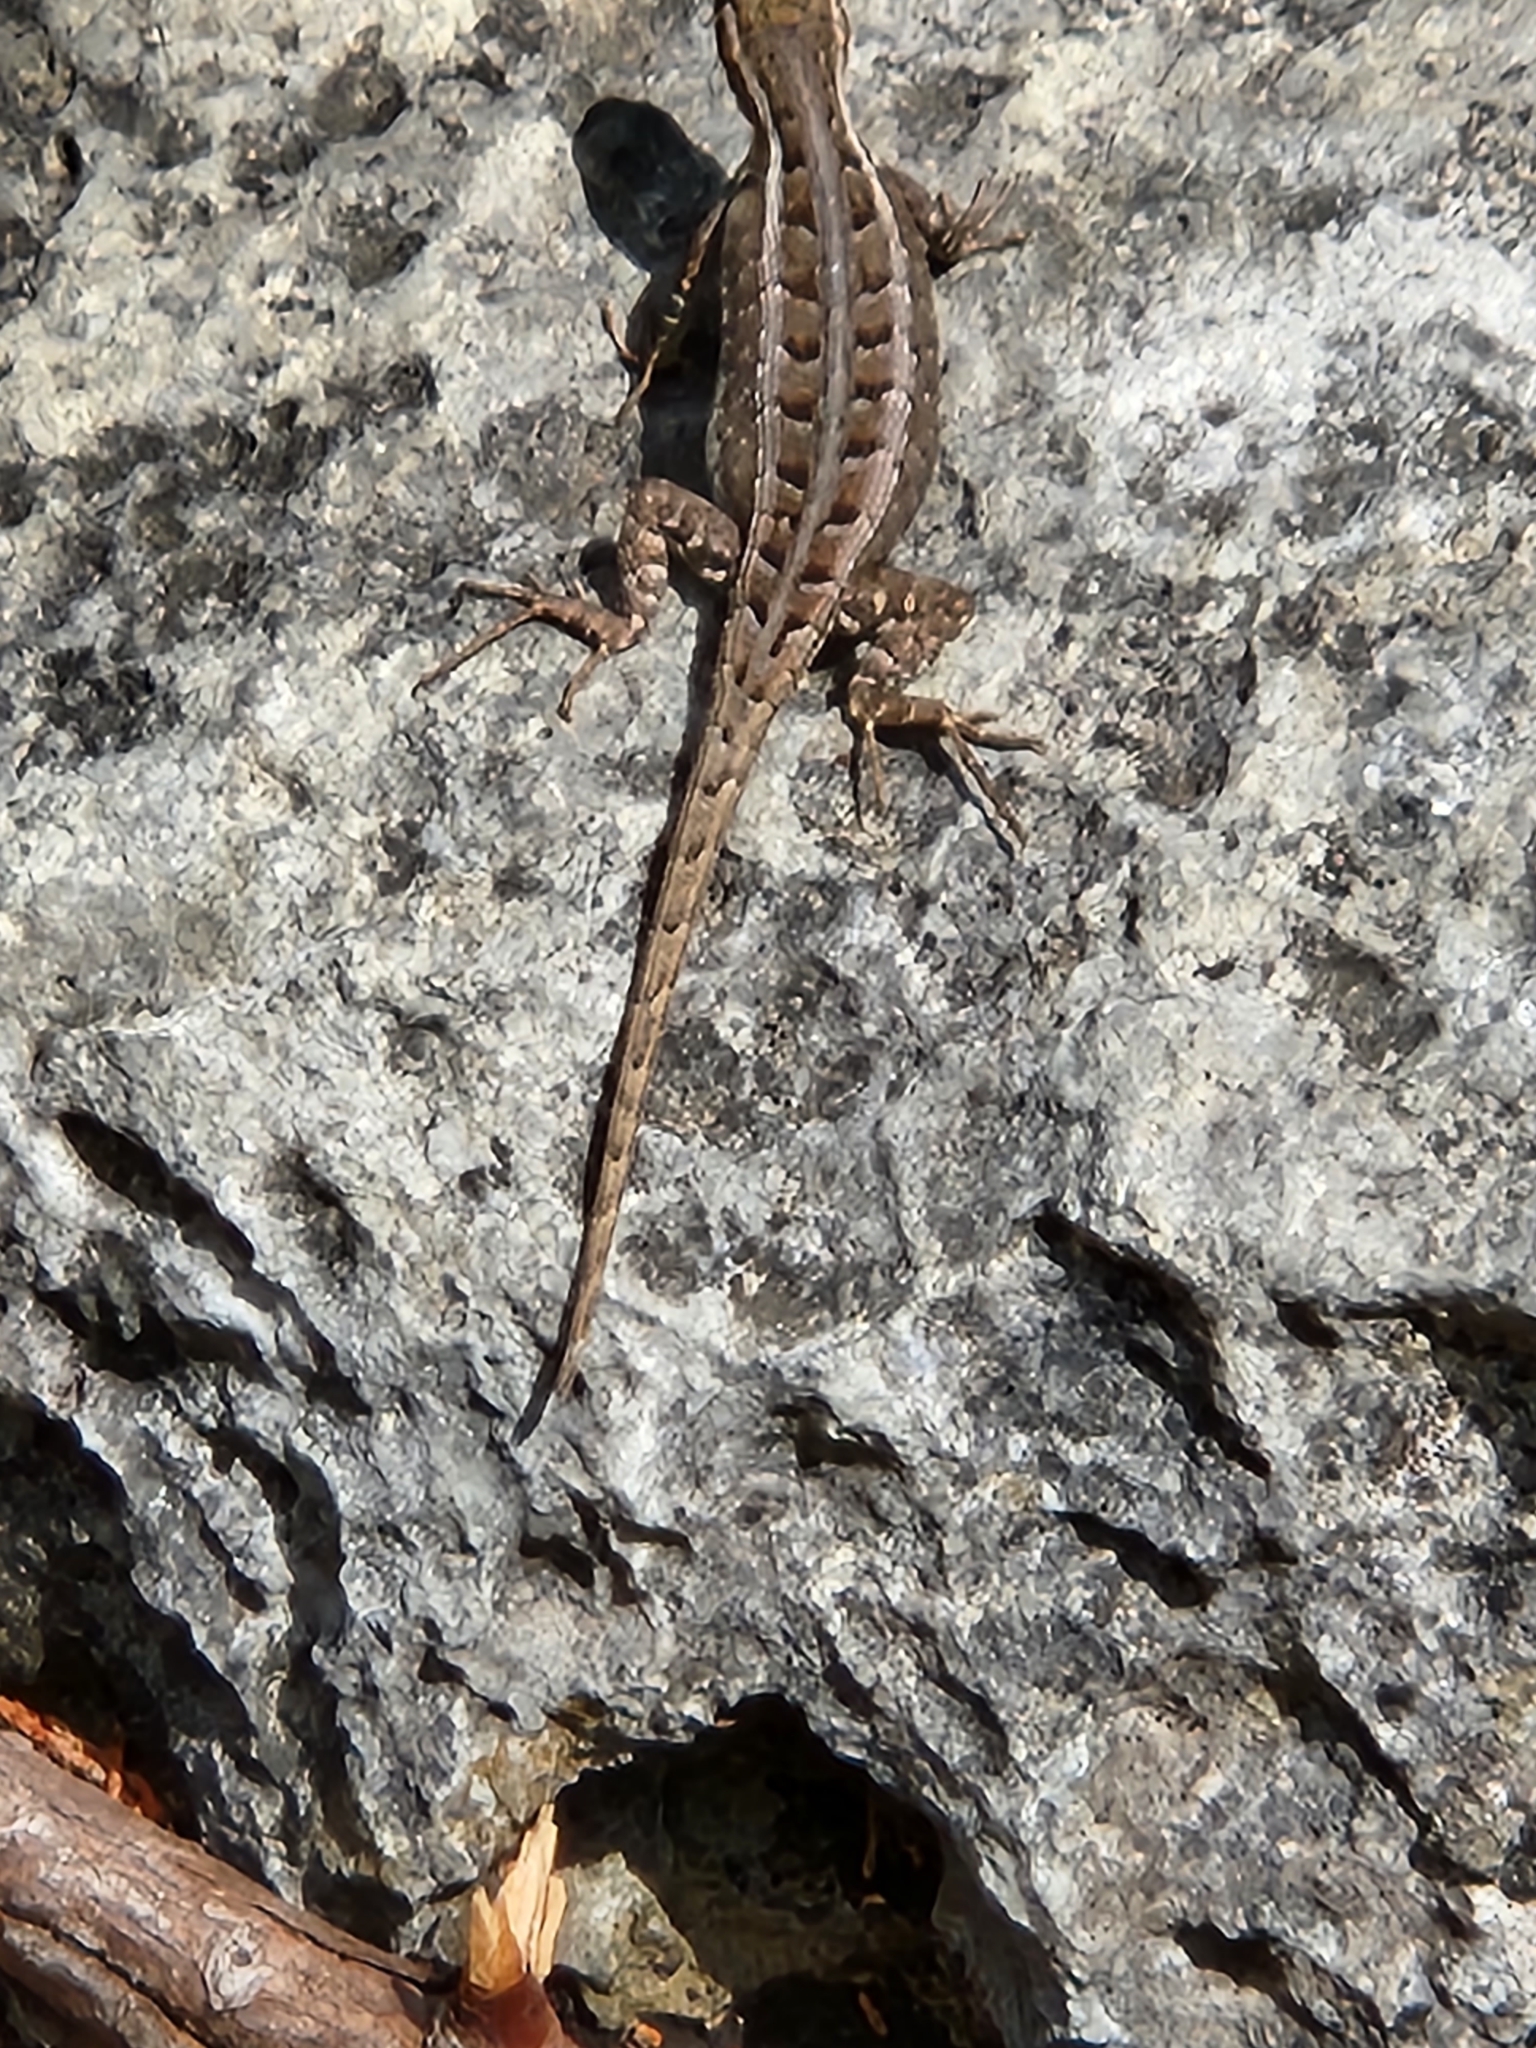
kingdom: Animalia
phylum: Chordata
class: Squamata
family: Phrynosomatidae
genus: Sceloporus
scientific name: Sceloporus variabilis
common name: Rosebelly lizard
